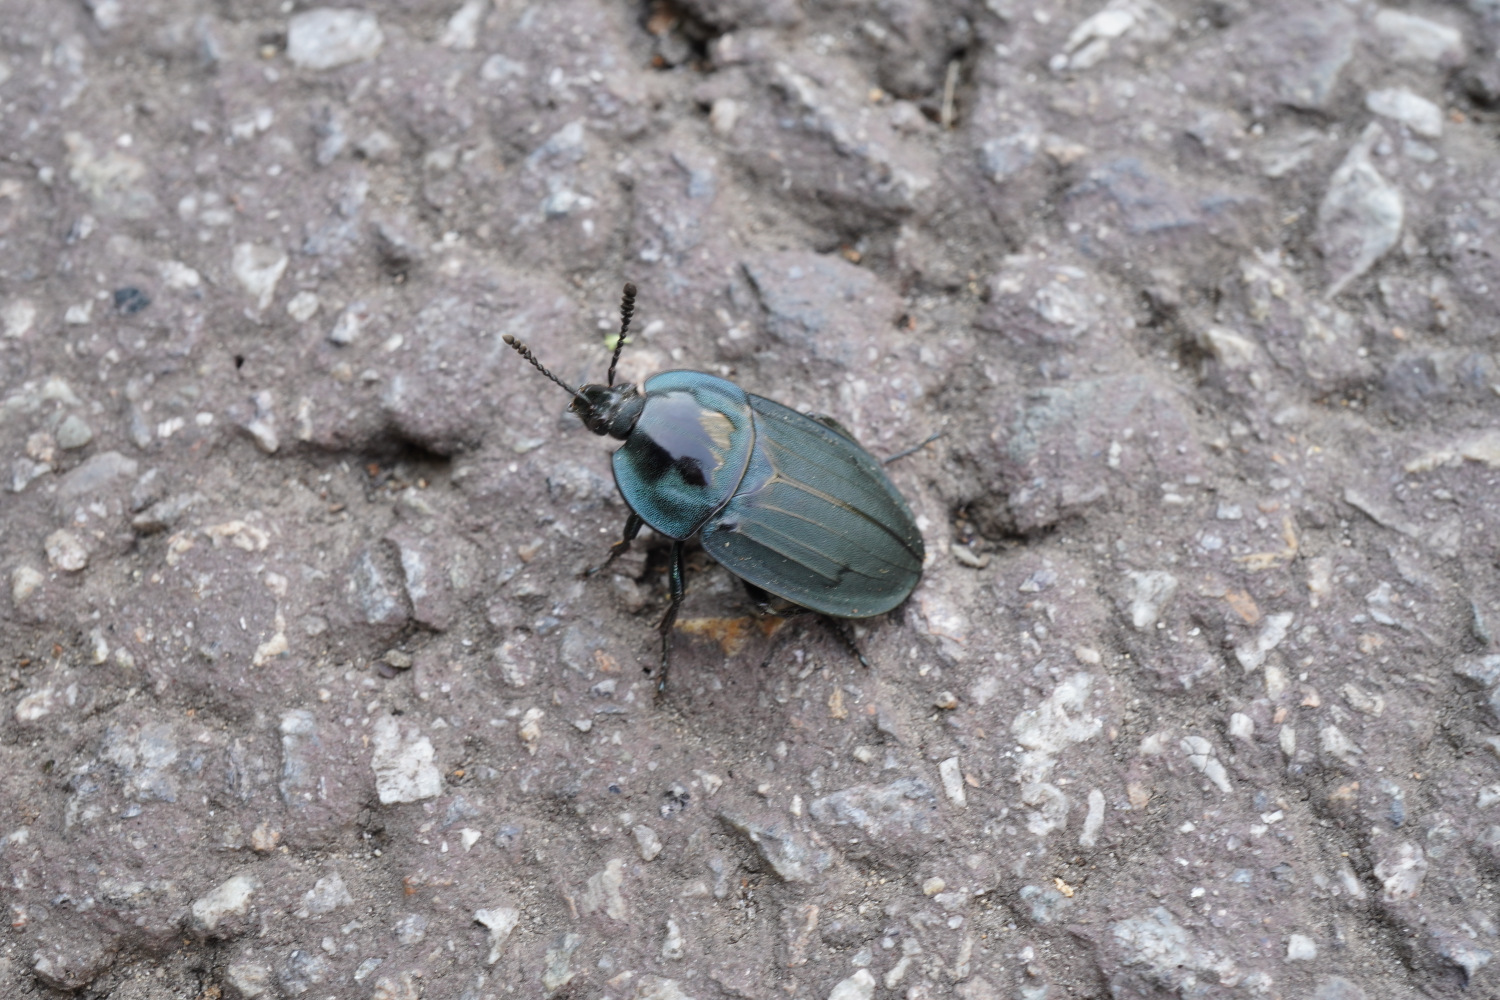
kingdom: Animalia
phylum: Arthropoda
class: Insecta
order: Coleoptera
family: Silphidae
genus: Eusilpha
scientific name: Eusilpha
